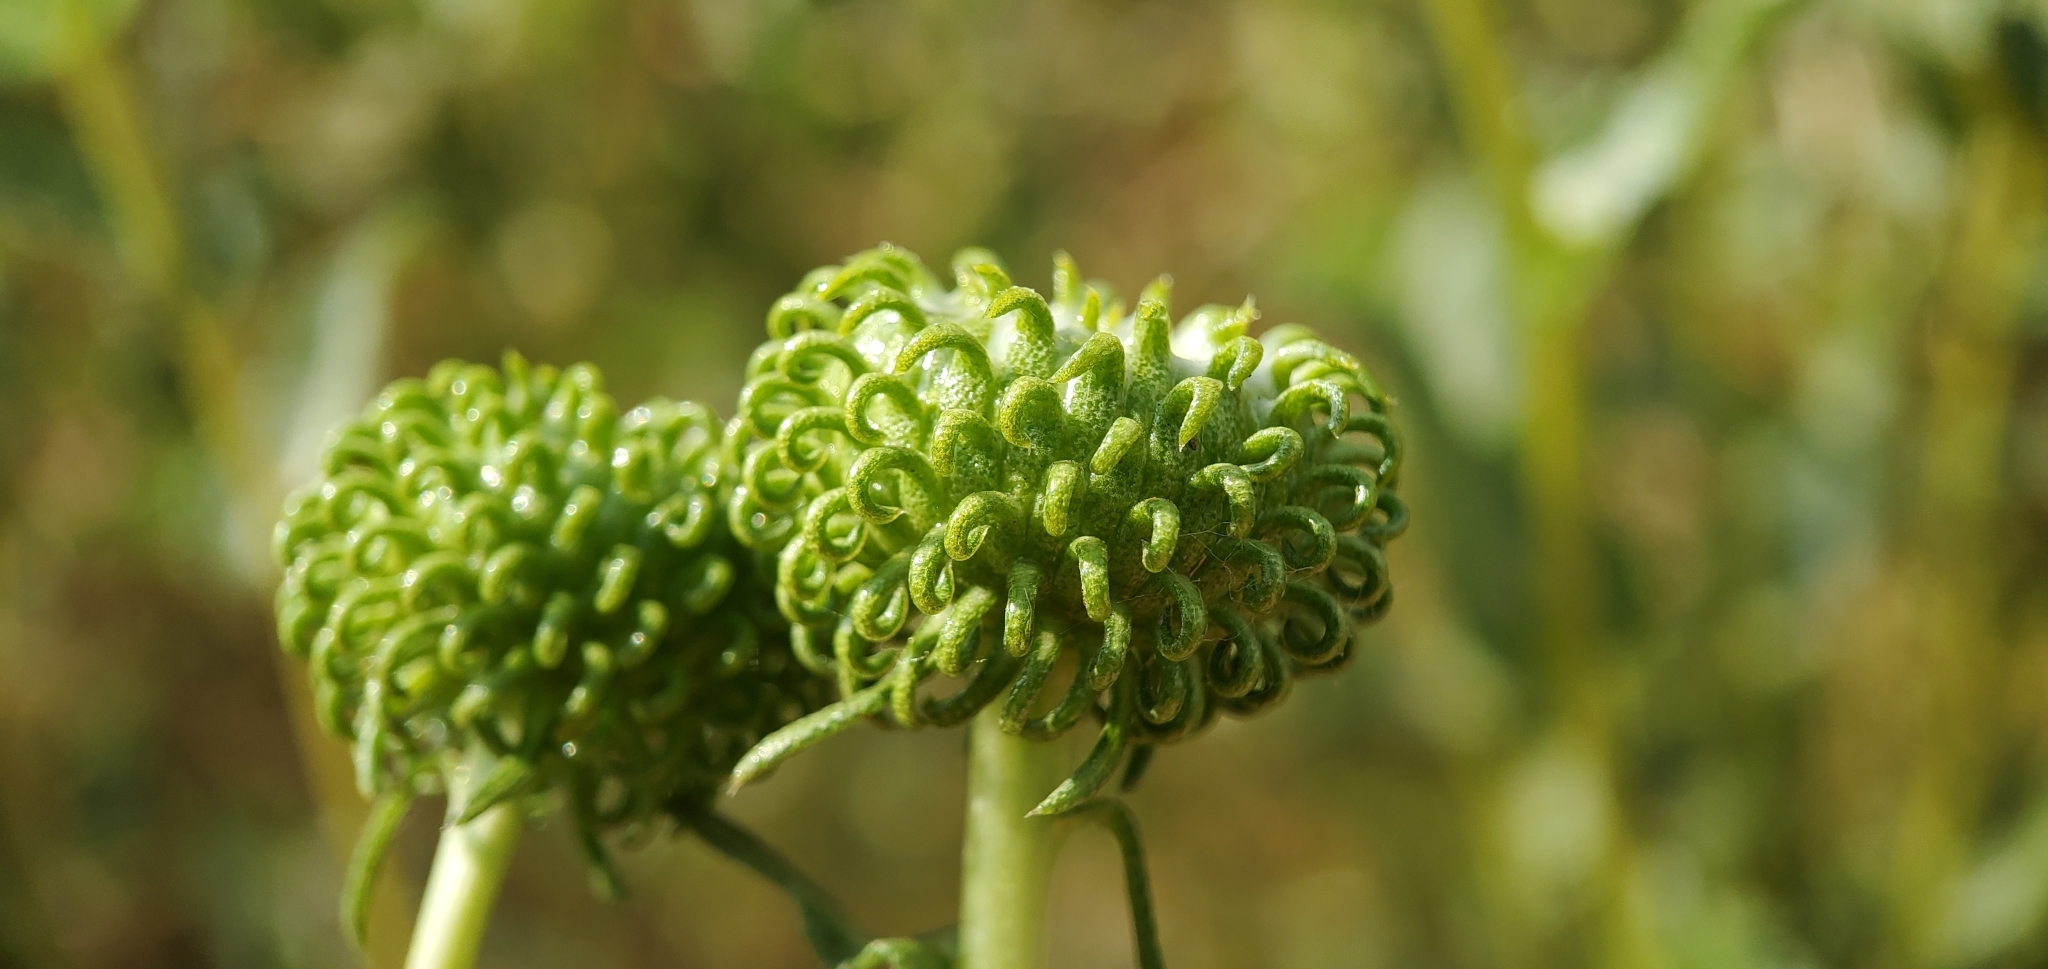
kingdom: Plantae
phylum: Tracheophyta
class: Magnoliopsida
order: Asterales
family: Asteraceae
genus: Grindelia
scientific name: Grindelia hirsutula
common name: Hairy gumweed
